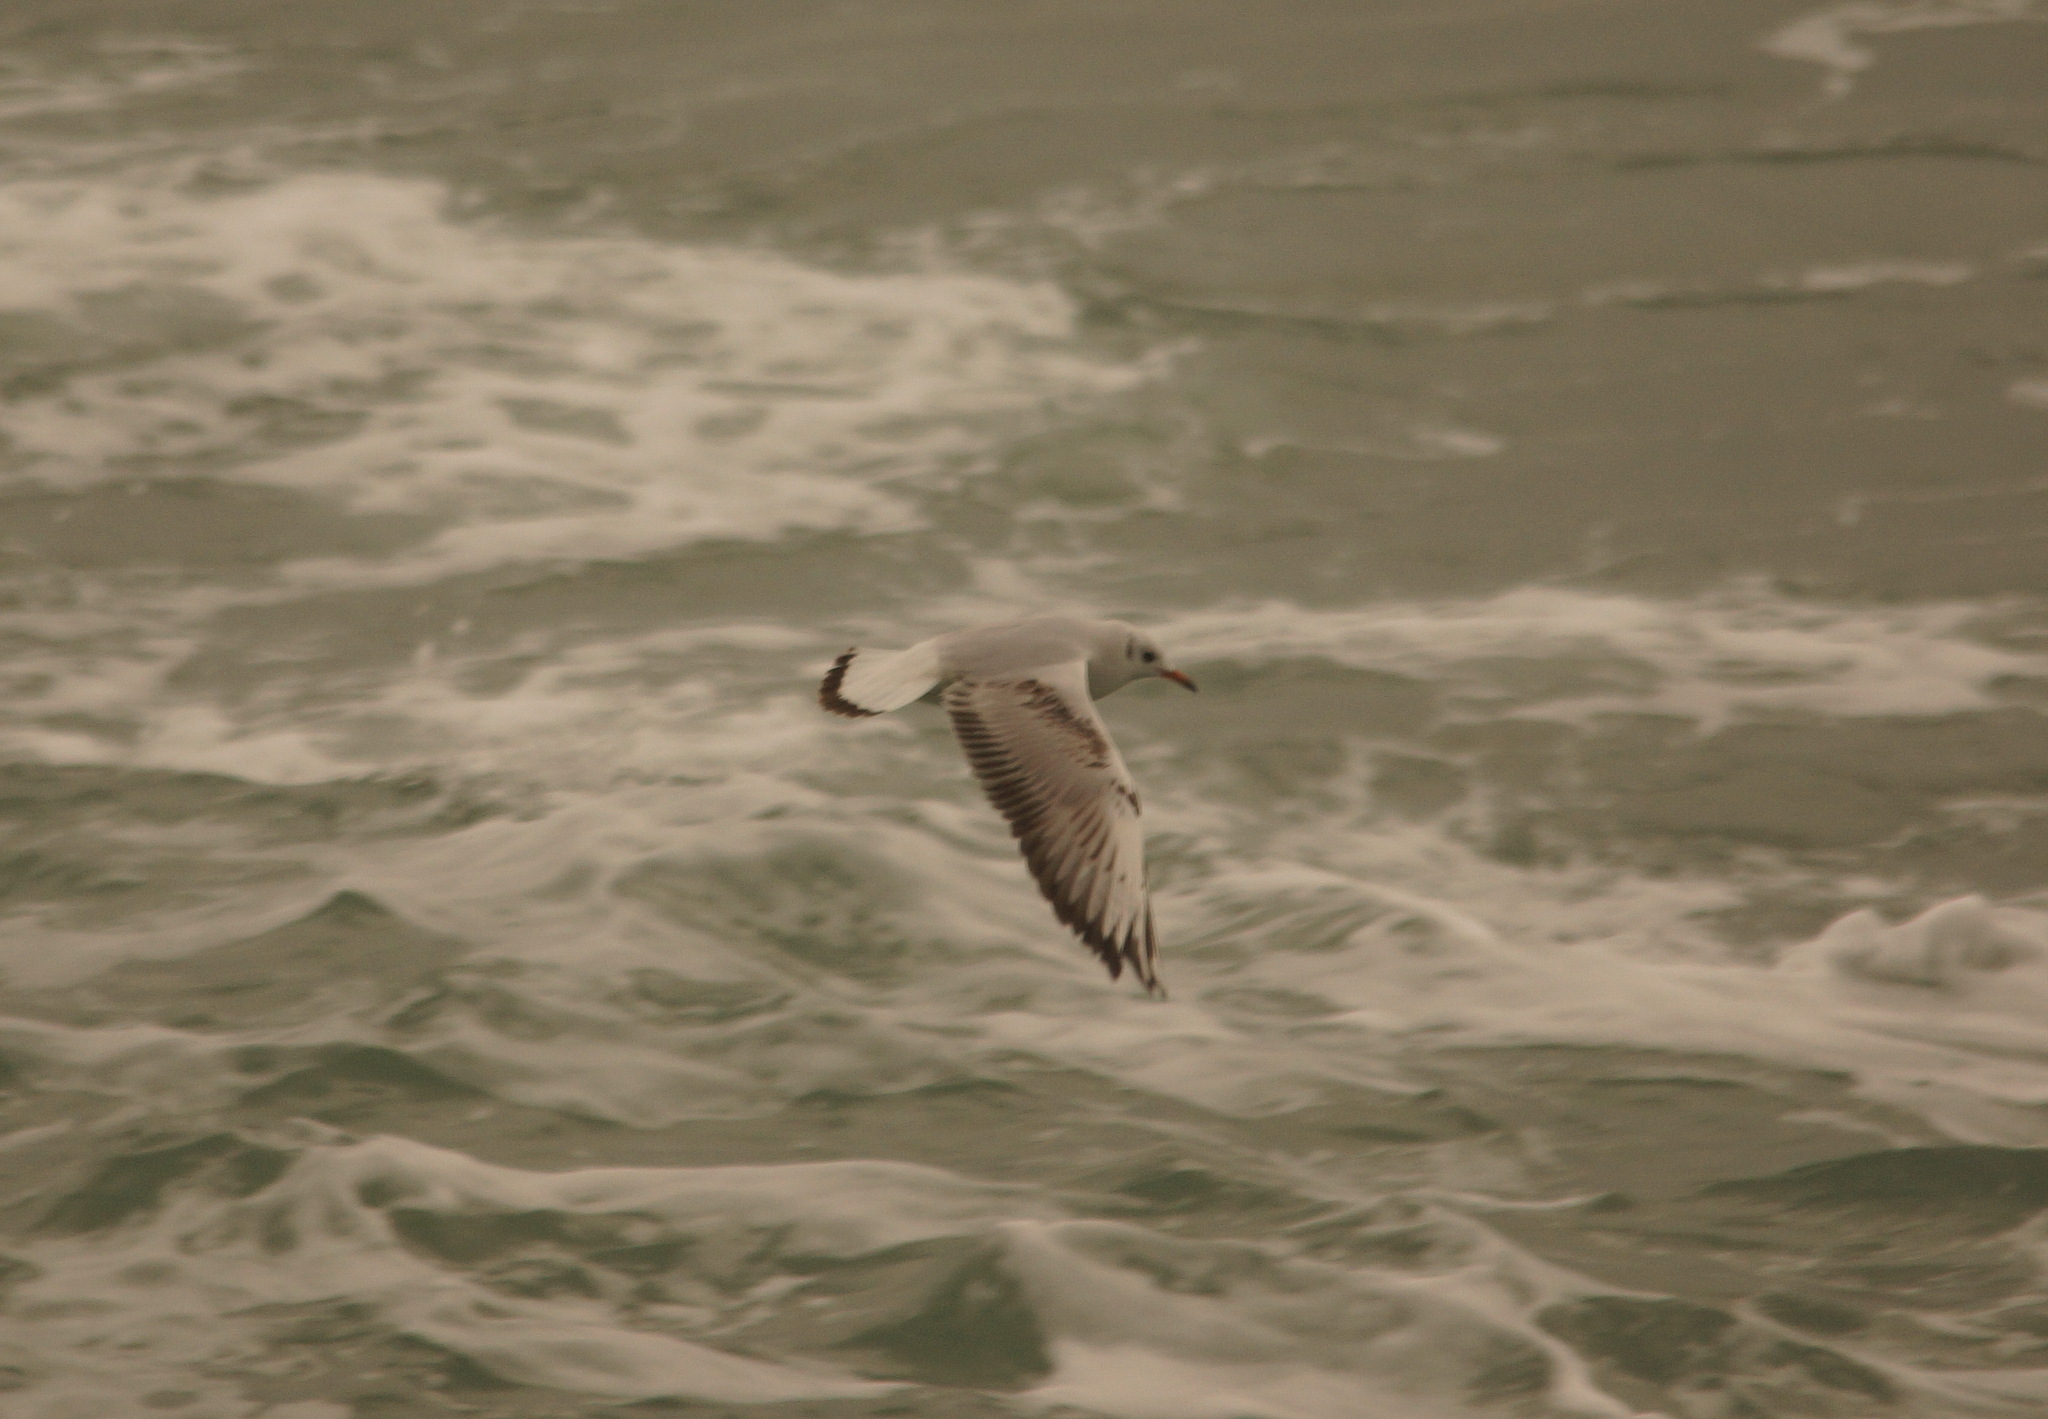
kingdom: Animalia
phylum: Chordata
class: Aves
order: Charadriiformes
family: Laridae
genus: Chroicocephalus
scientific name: Chroicocephalus ridibundus
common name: Black-headed gull
